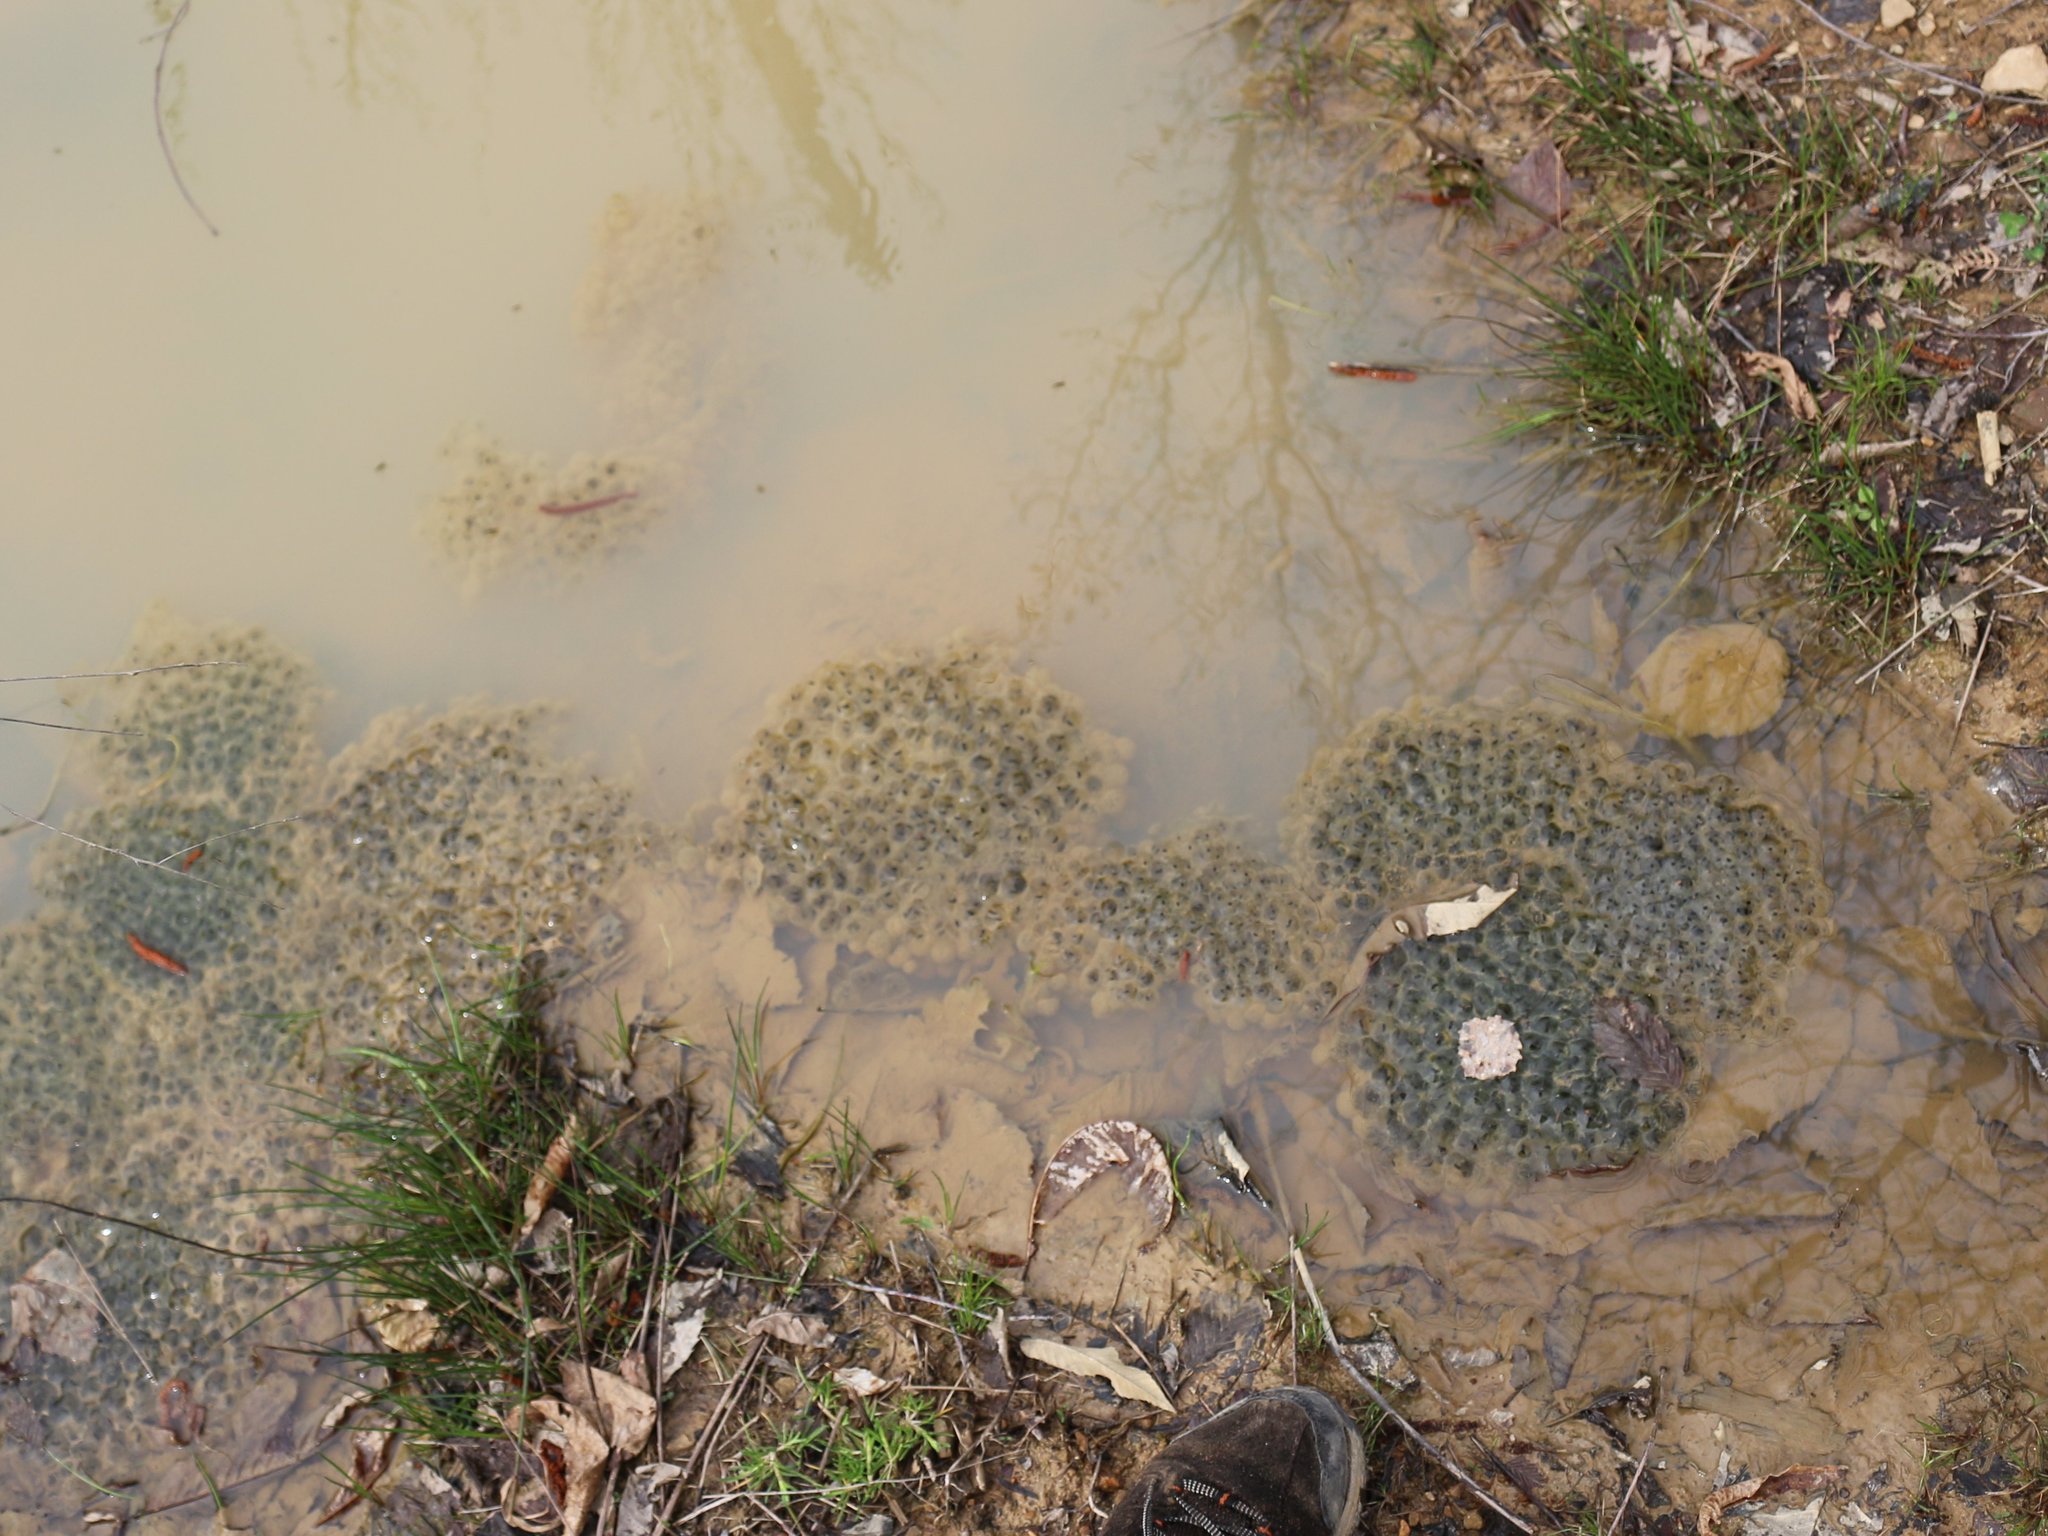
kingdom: Animalia
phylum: Chordata
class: Amphibia
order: Anura
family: Ranidae
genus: Rana
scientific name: Rana macrocnemis
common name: Banded frog
